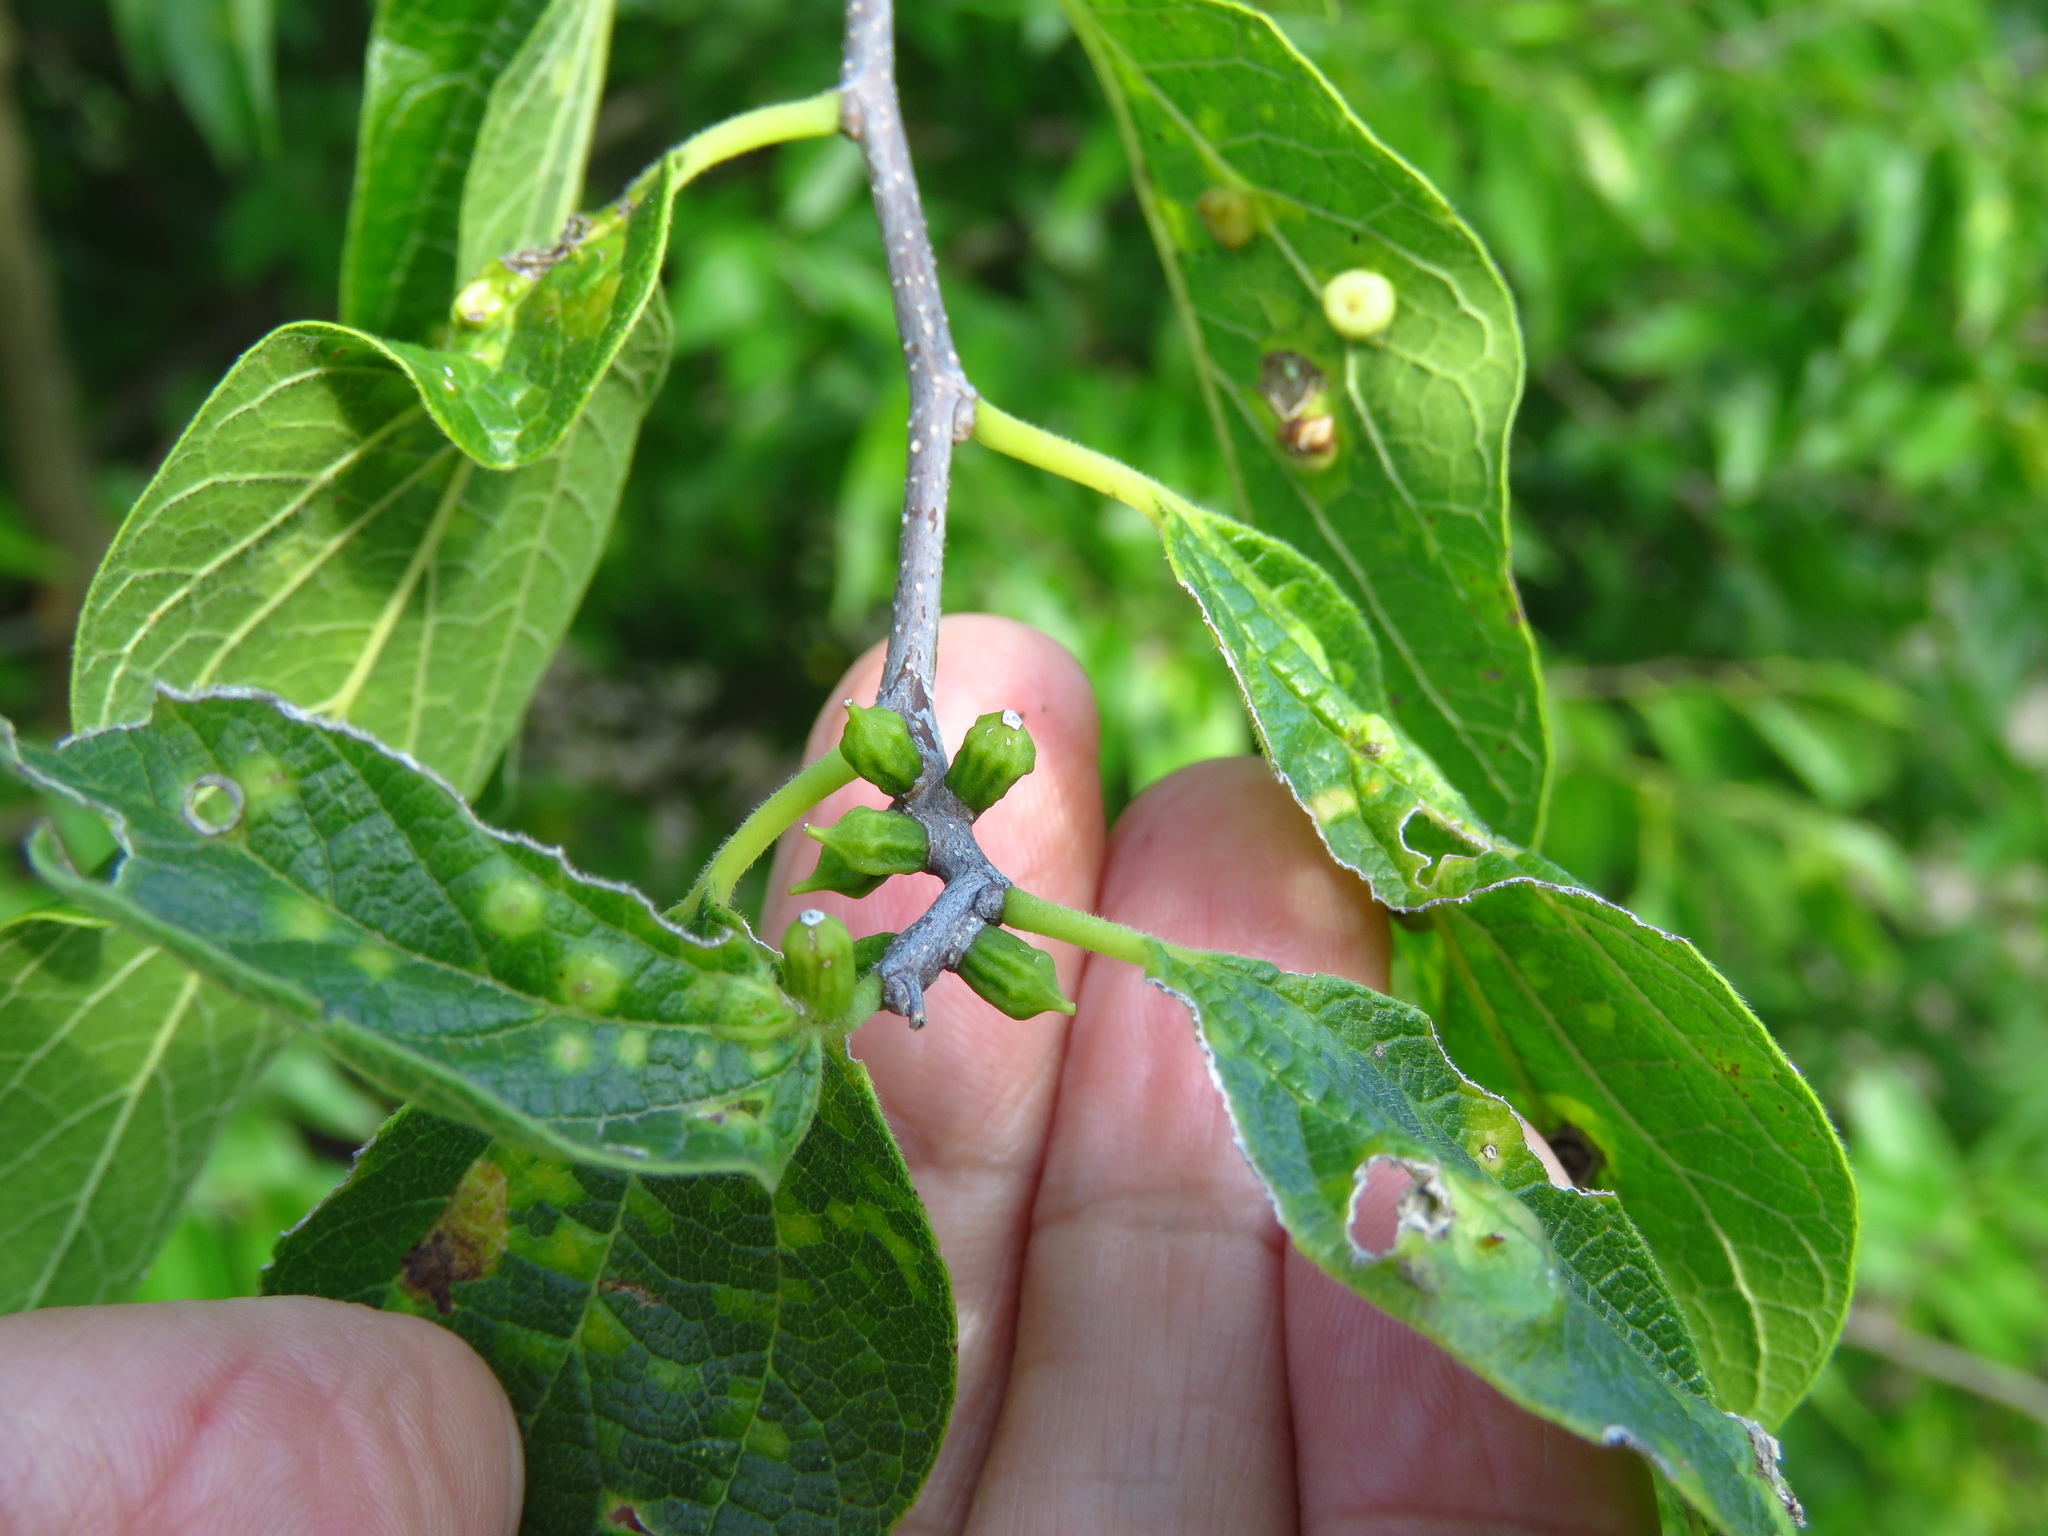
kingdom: Animalia
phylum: Arthropoda
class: Insecta
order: Diptera
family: Cecidomyiidae
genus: Celticecis
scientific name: Celticecis ramicola
